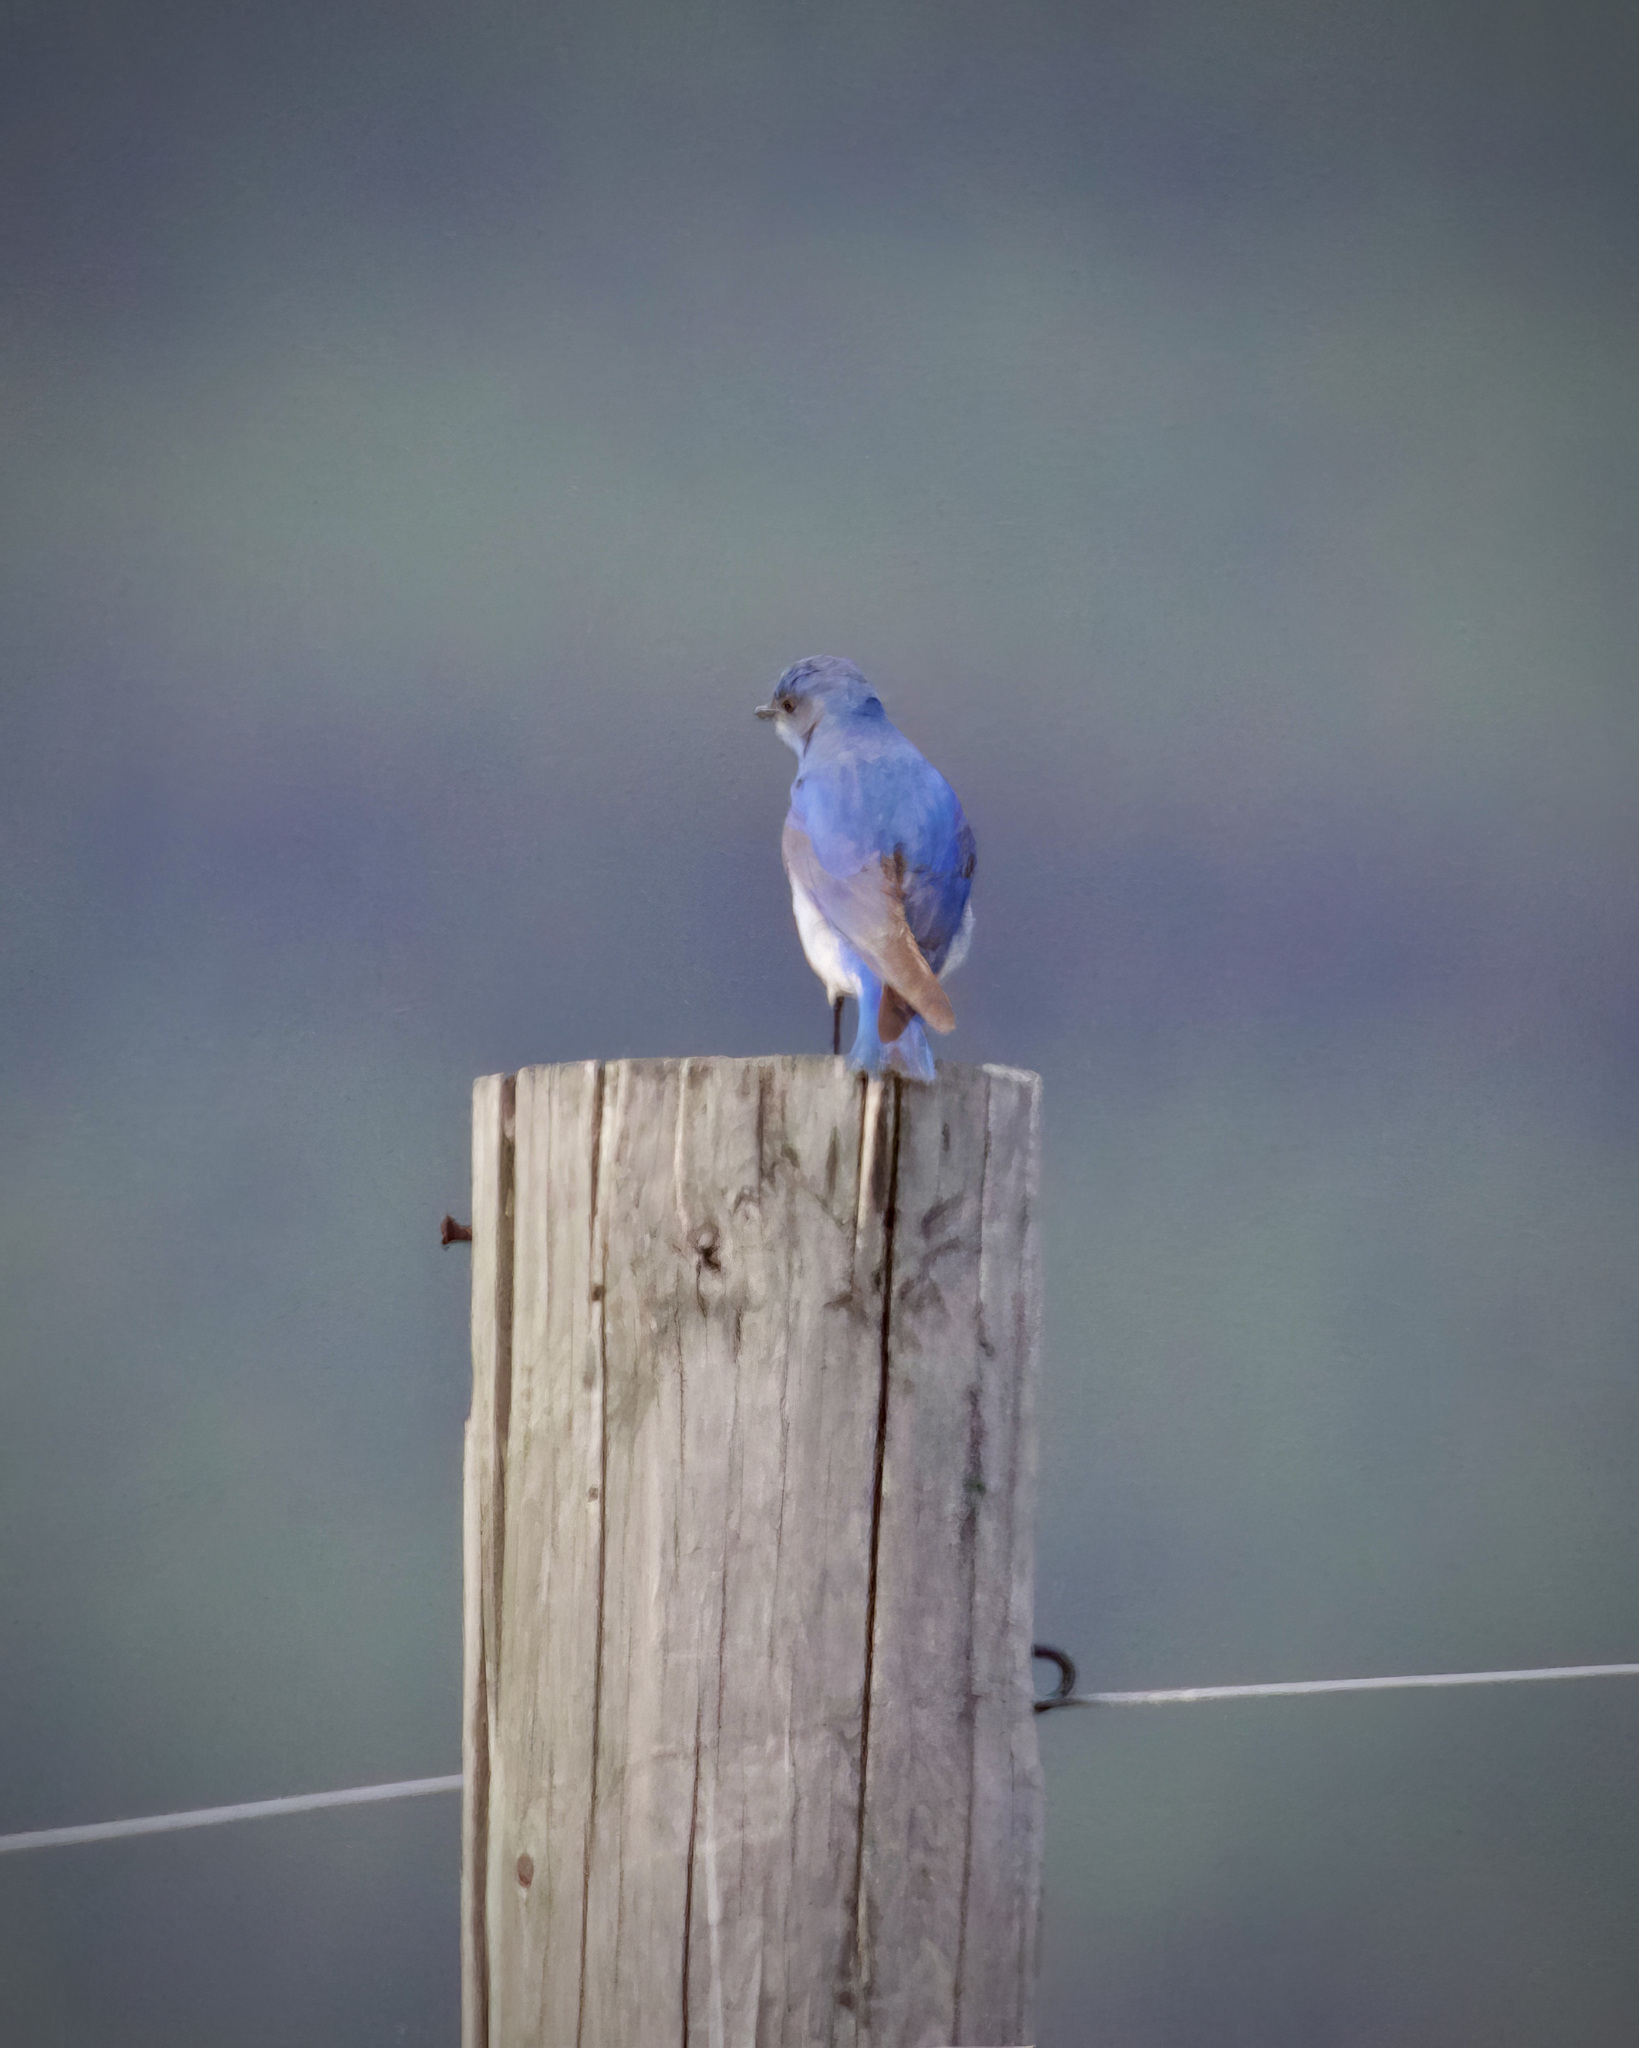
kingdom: Animalia
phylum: Chordata
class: Aves
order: Passeriformes
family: Turdidae
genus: Sialia
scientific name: Sialia currucoides
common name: Mountain bluebird
